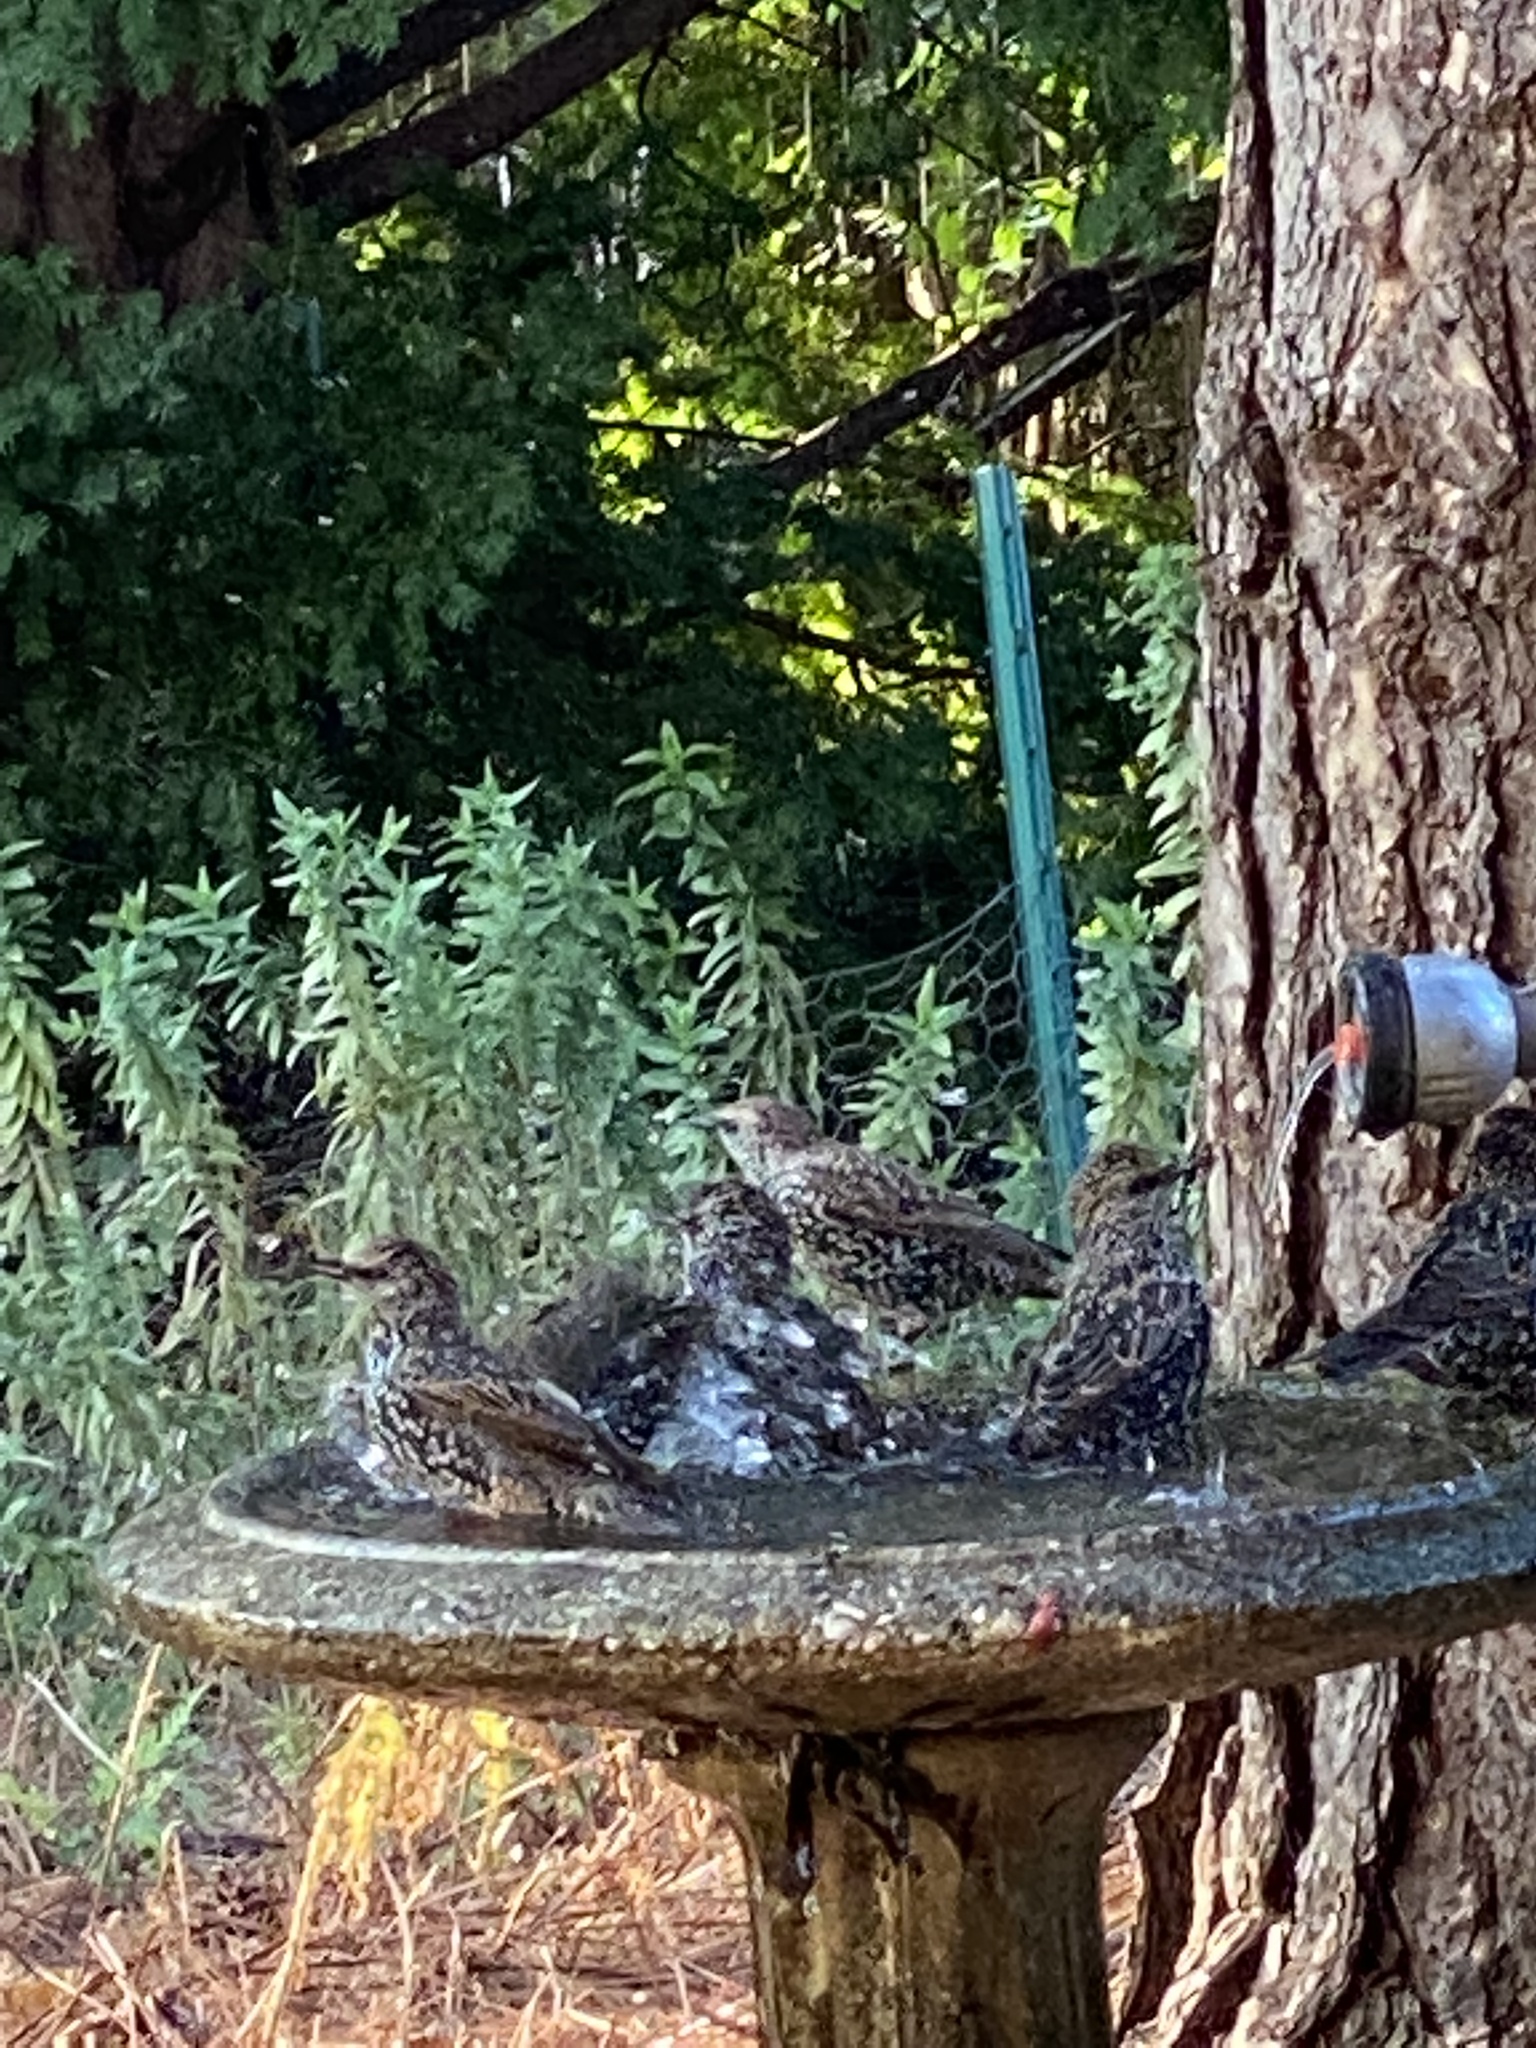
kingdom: Animalia
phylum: Chordata
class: Aves
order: Passeriformes
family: Sturnidae
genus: Sturnus
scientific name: Sturnus vulgaris
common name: Common starling
